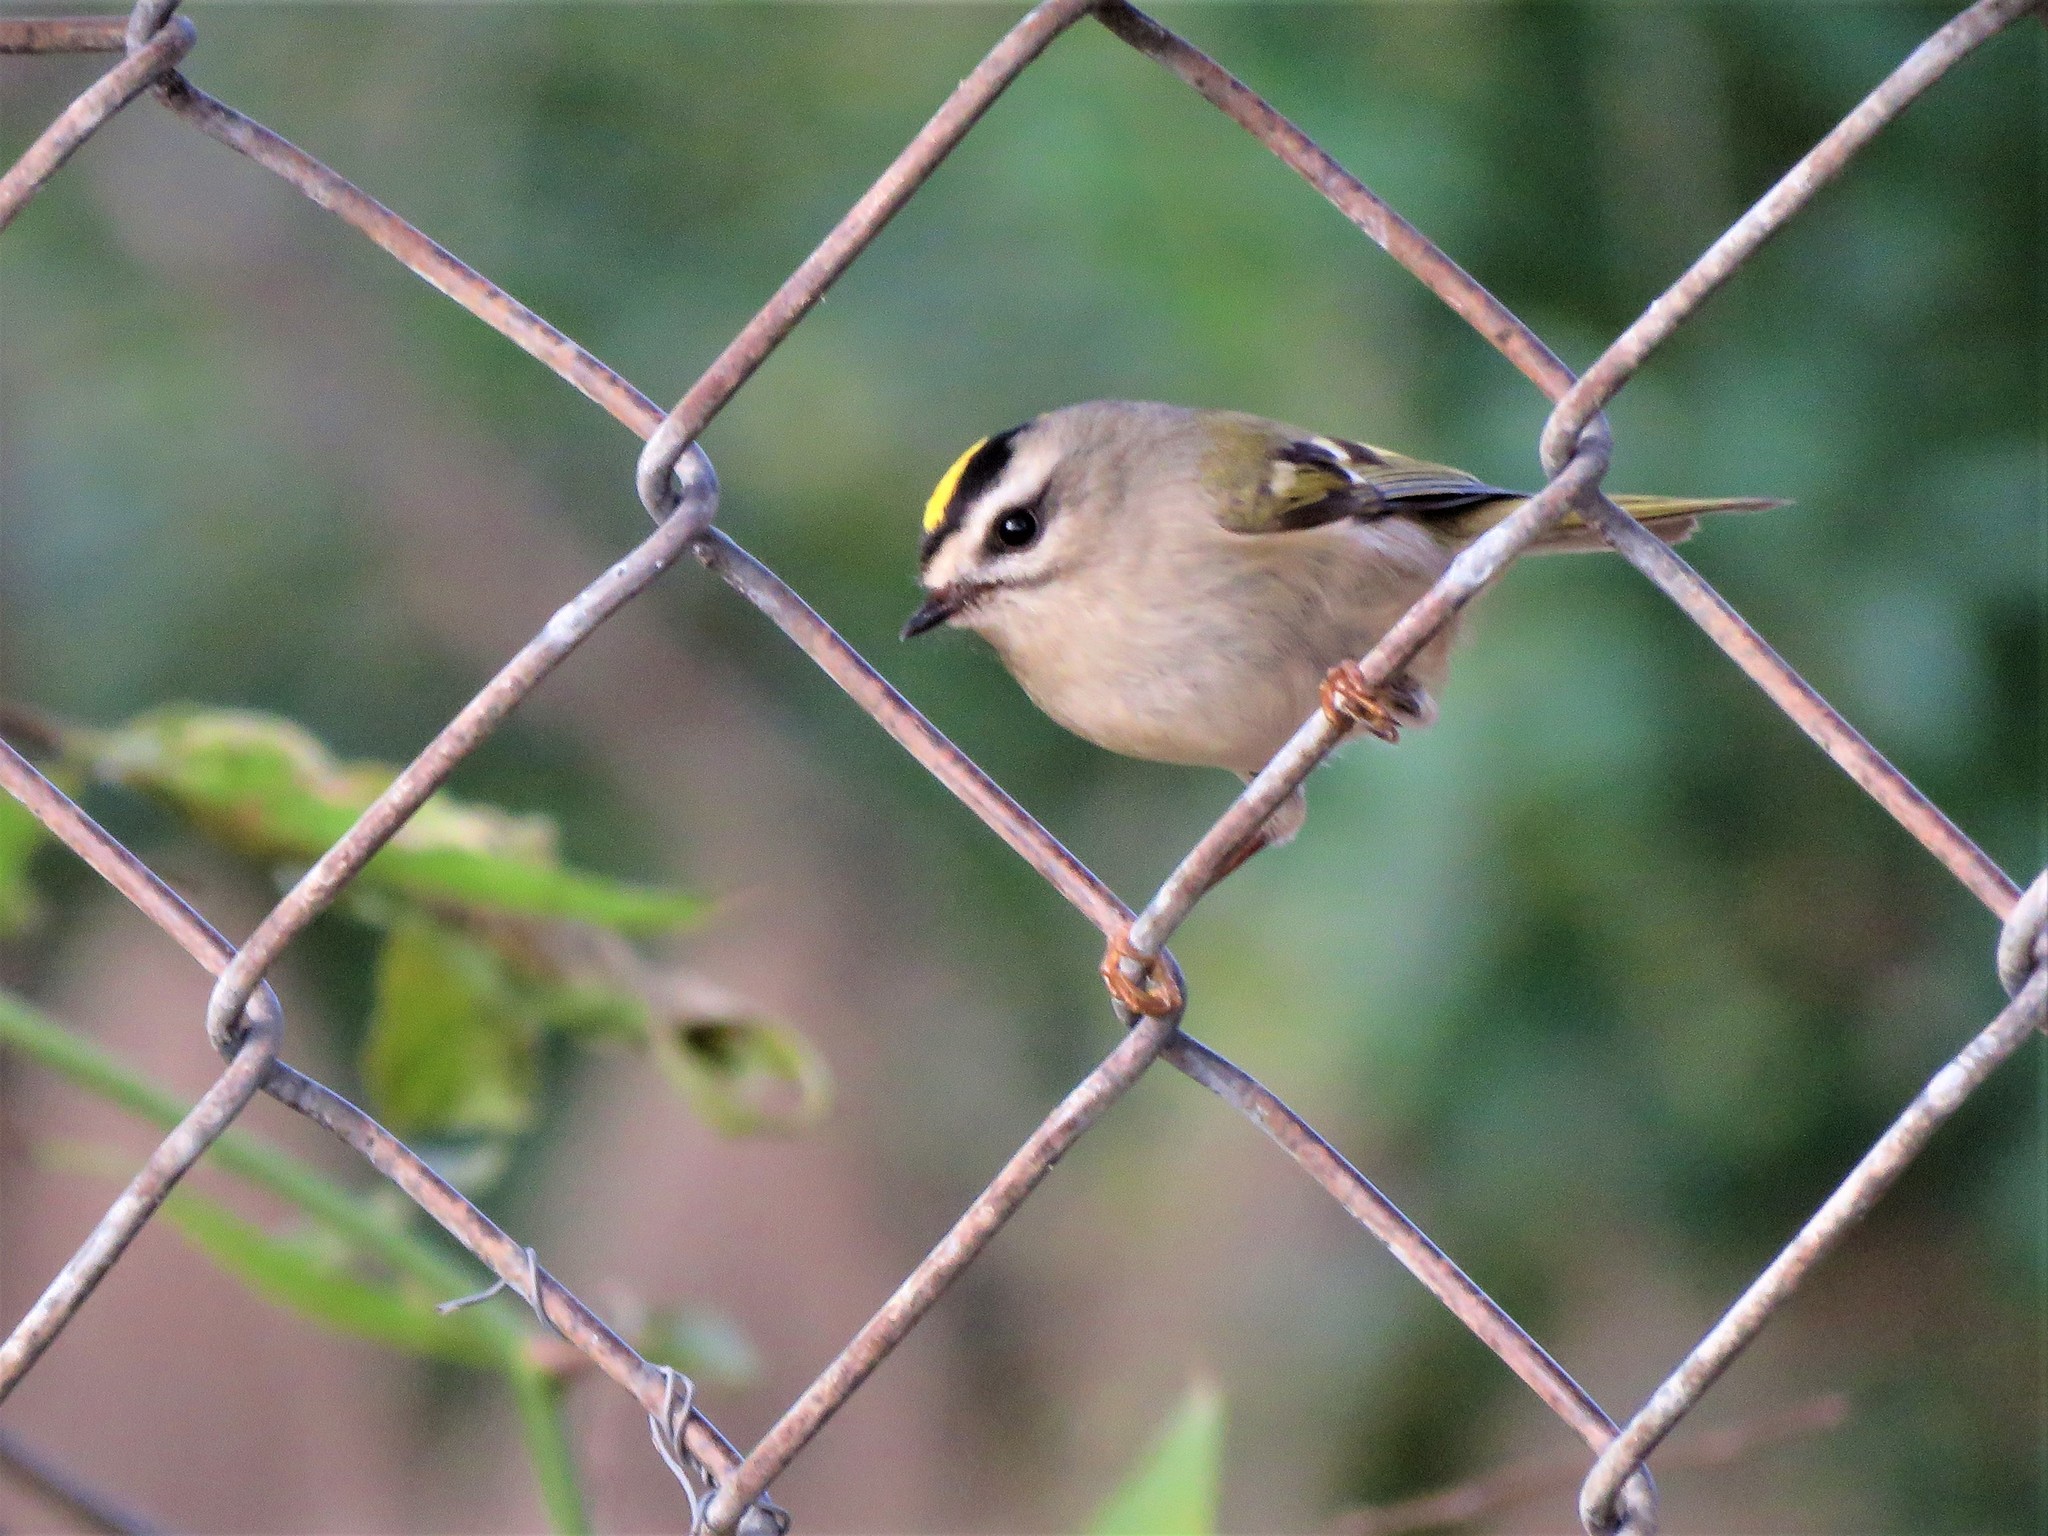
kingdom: Animalia
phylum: Chordata
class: Aves
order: Passeriformes
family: Regulidae
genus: Regulus
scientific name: Regulus satrapa
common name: Golden-crowned kinglet
